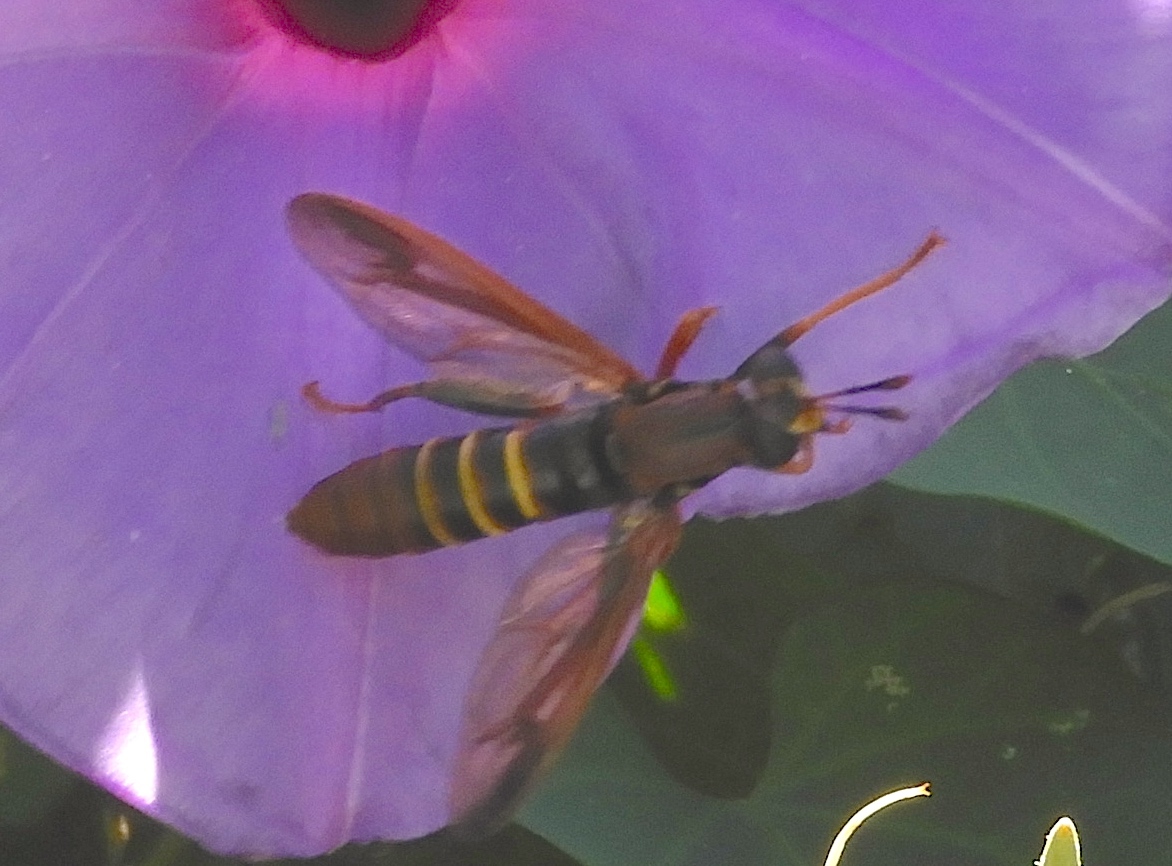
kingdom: Animalia
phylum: Arthropoda
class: Insecta
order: Diptera
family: Mydidae
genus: Mydas
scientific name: Mydas
